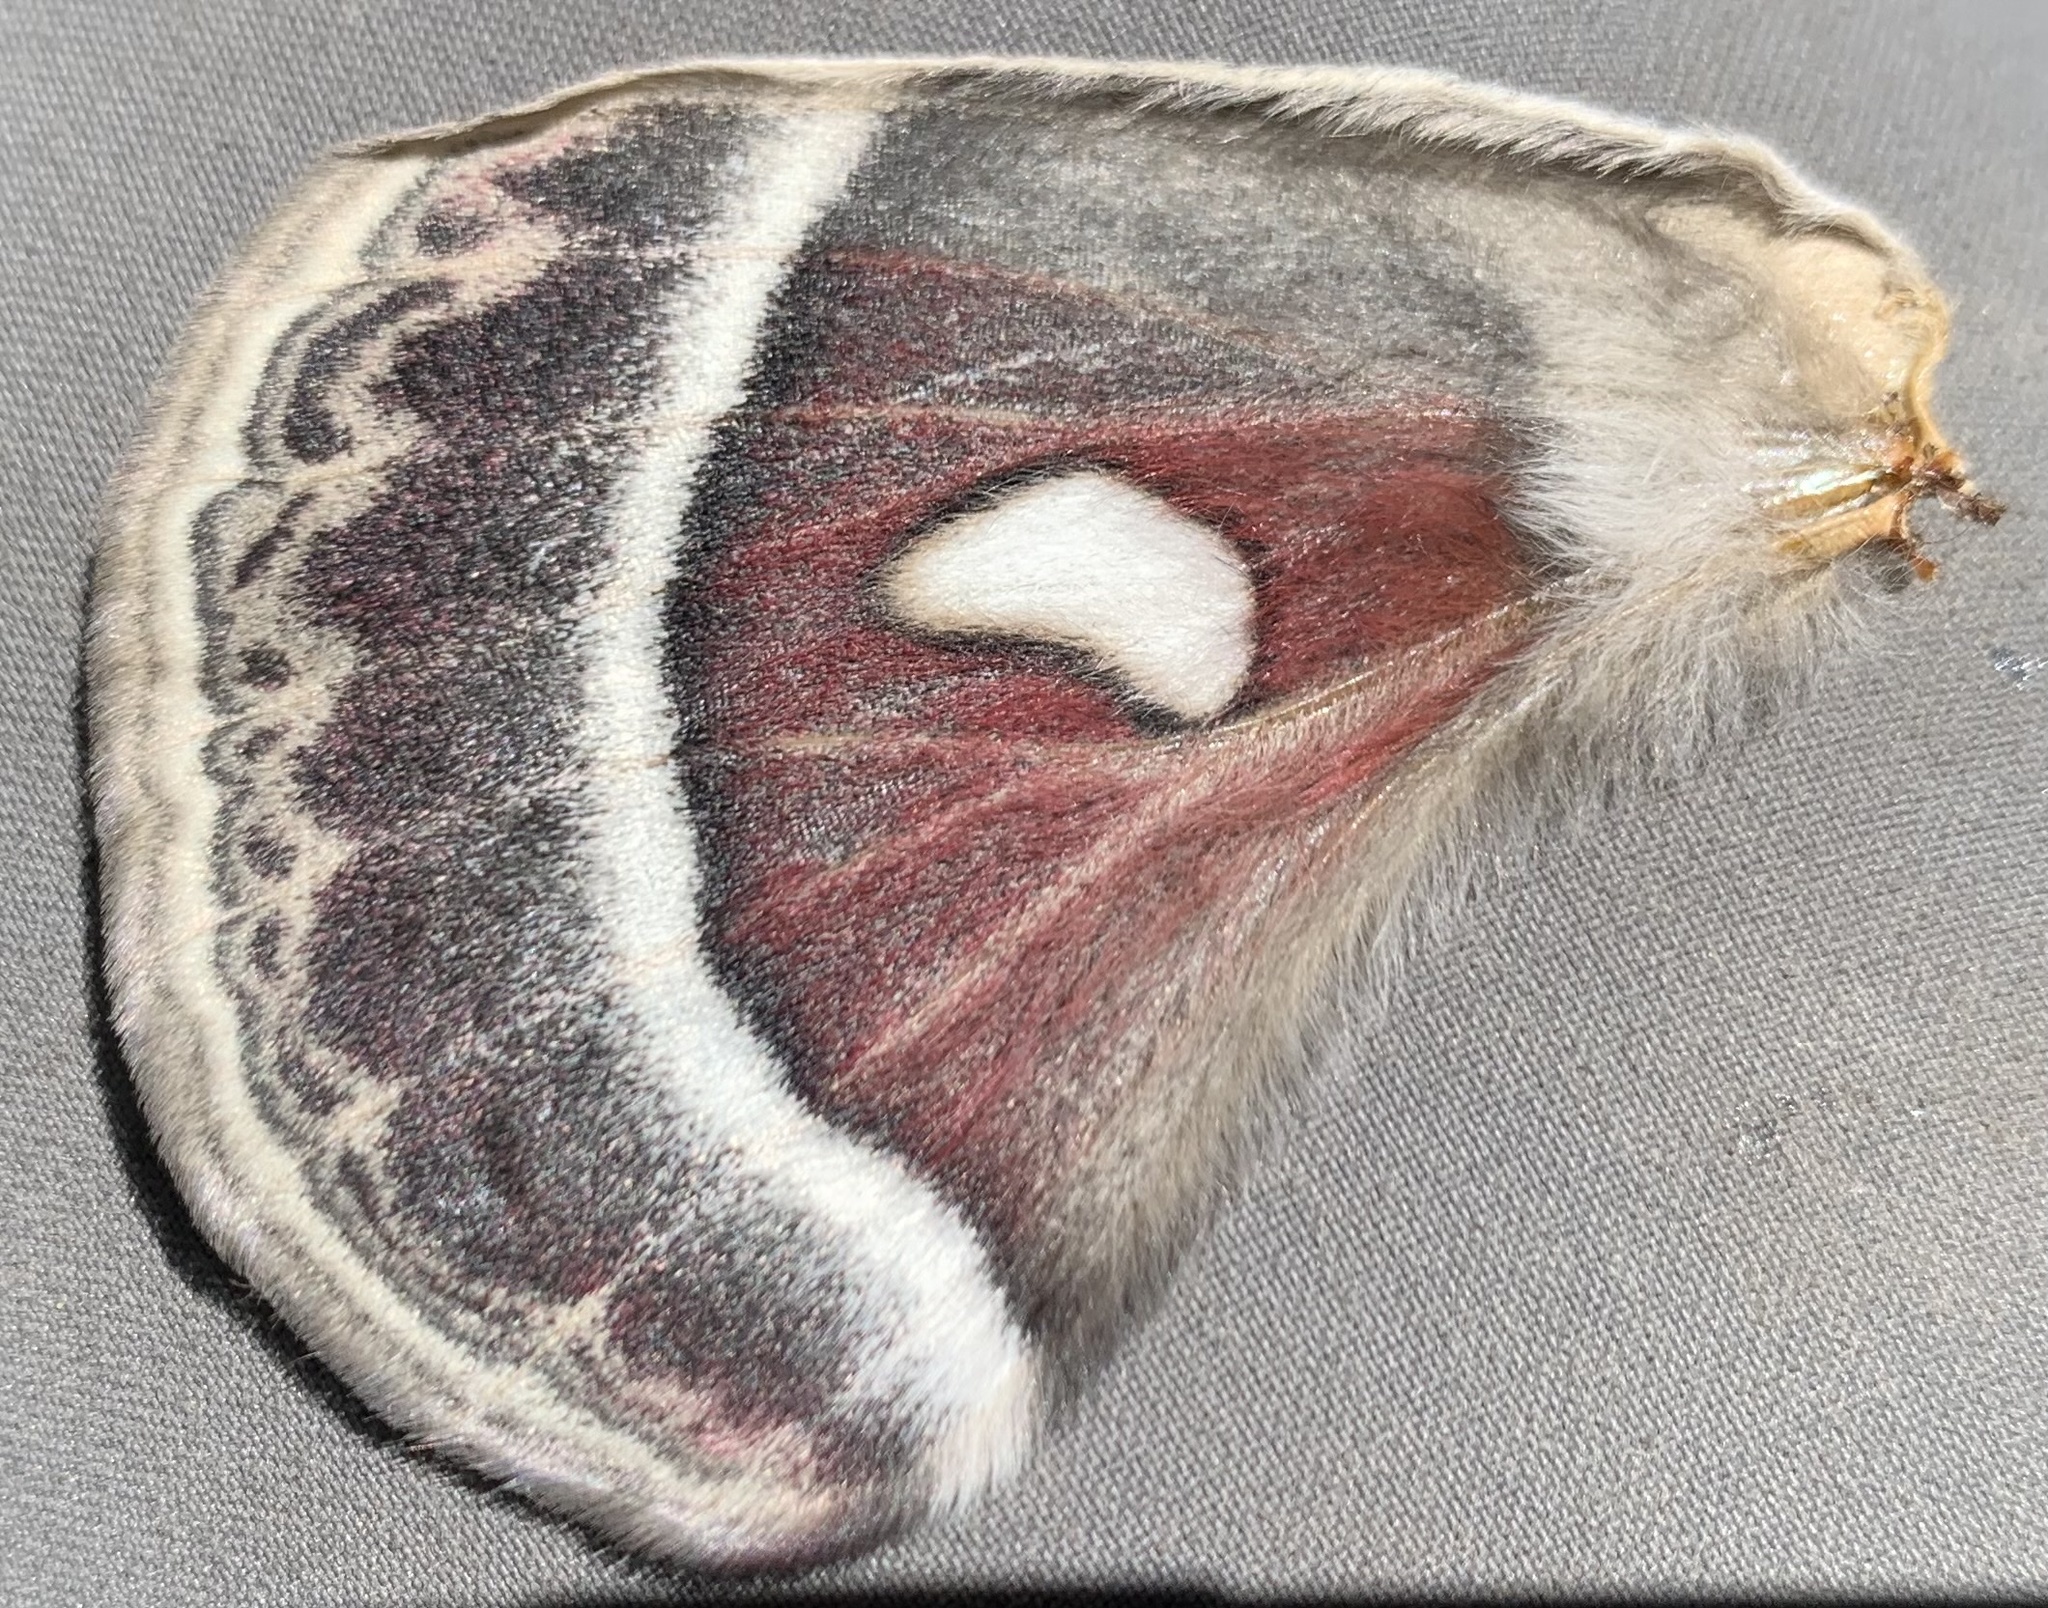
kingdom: Animalia
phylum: Arthropoda
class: Insecta
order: Lepidoptera
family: Saturniidae
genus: Hyalophora
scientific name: Hyalophora gloveri
